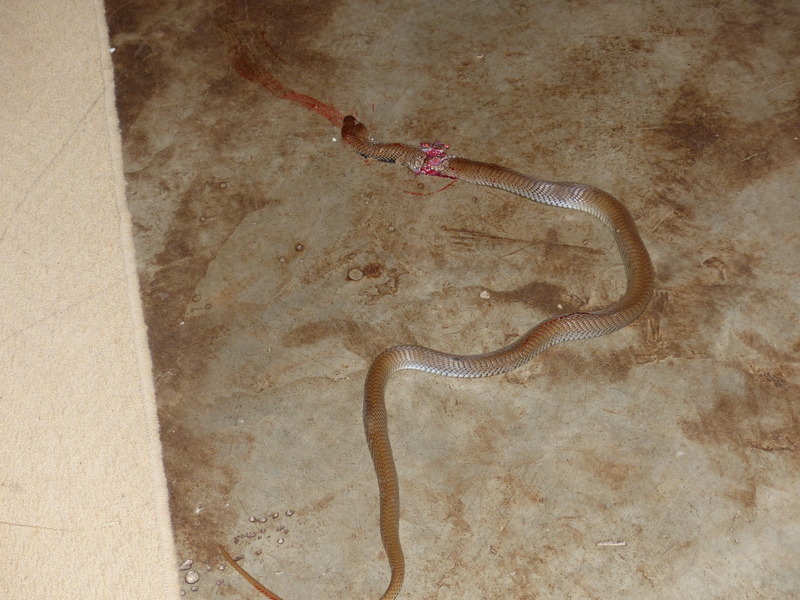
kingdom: Animalia
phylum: Chordata
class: Squamata
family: Elapidae
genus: Naja
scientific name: Naja mossambica
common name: Mozambique spitting cobra
